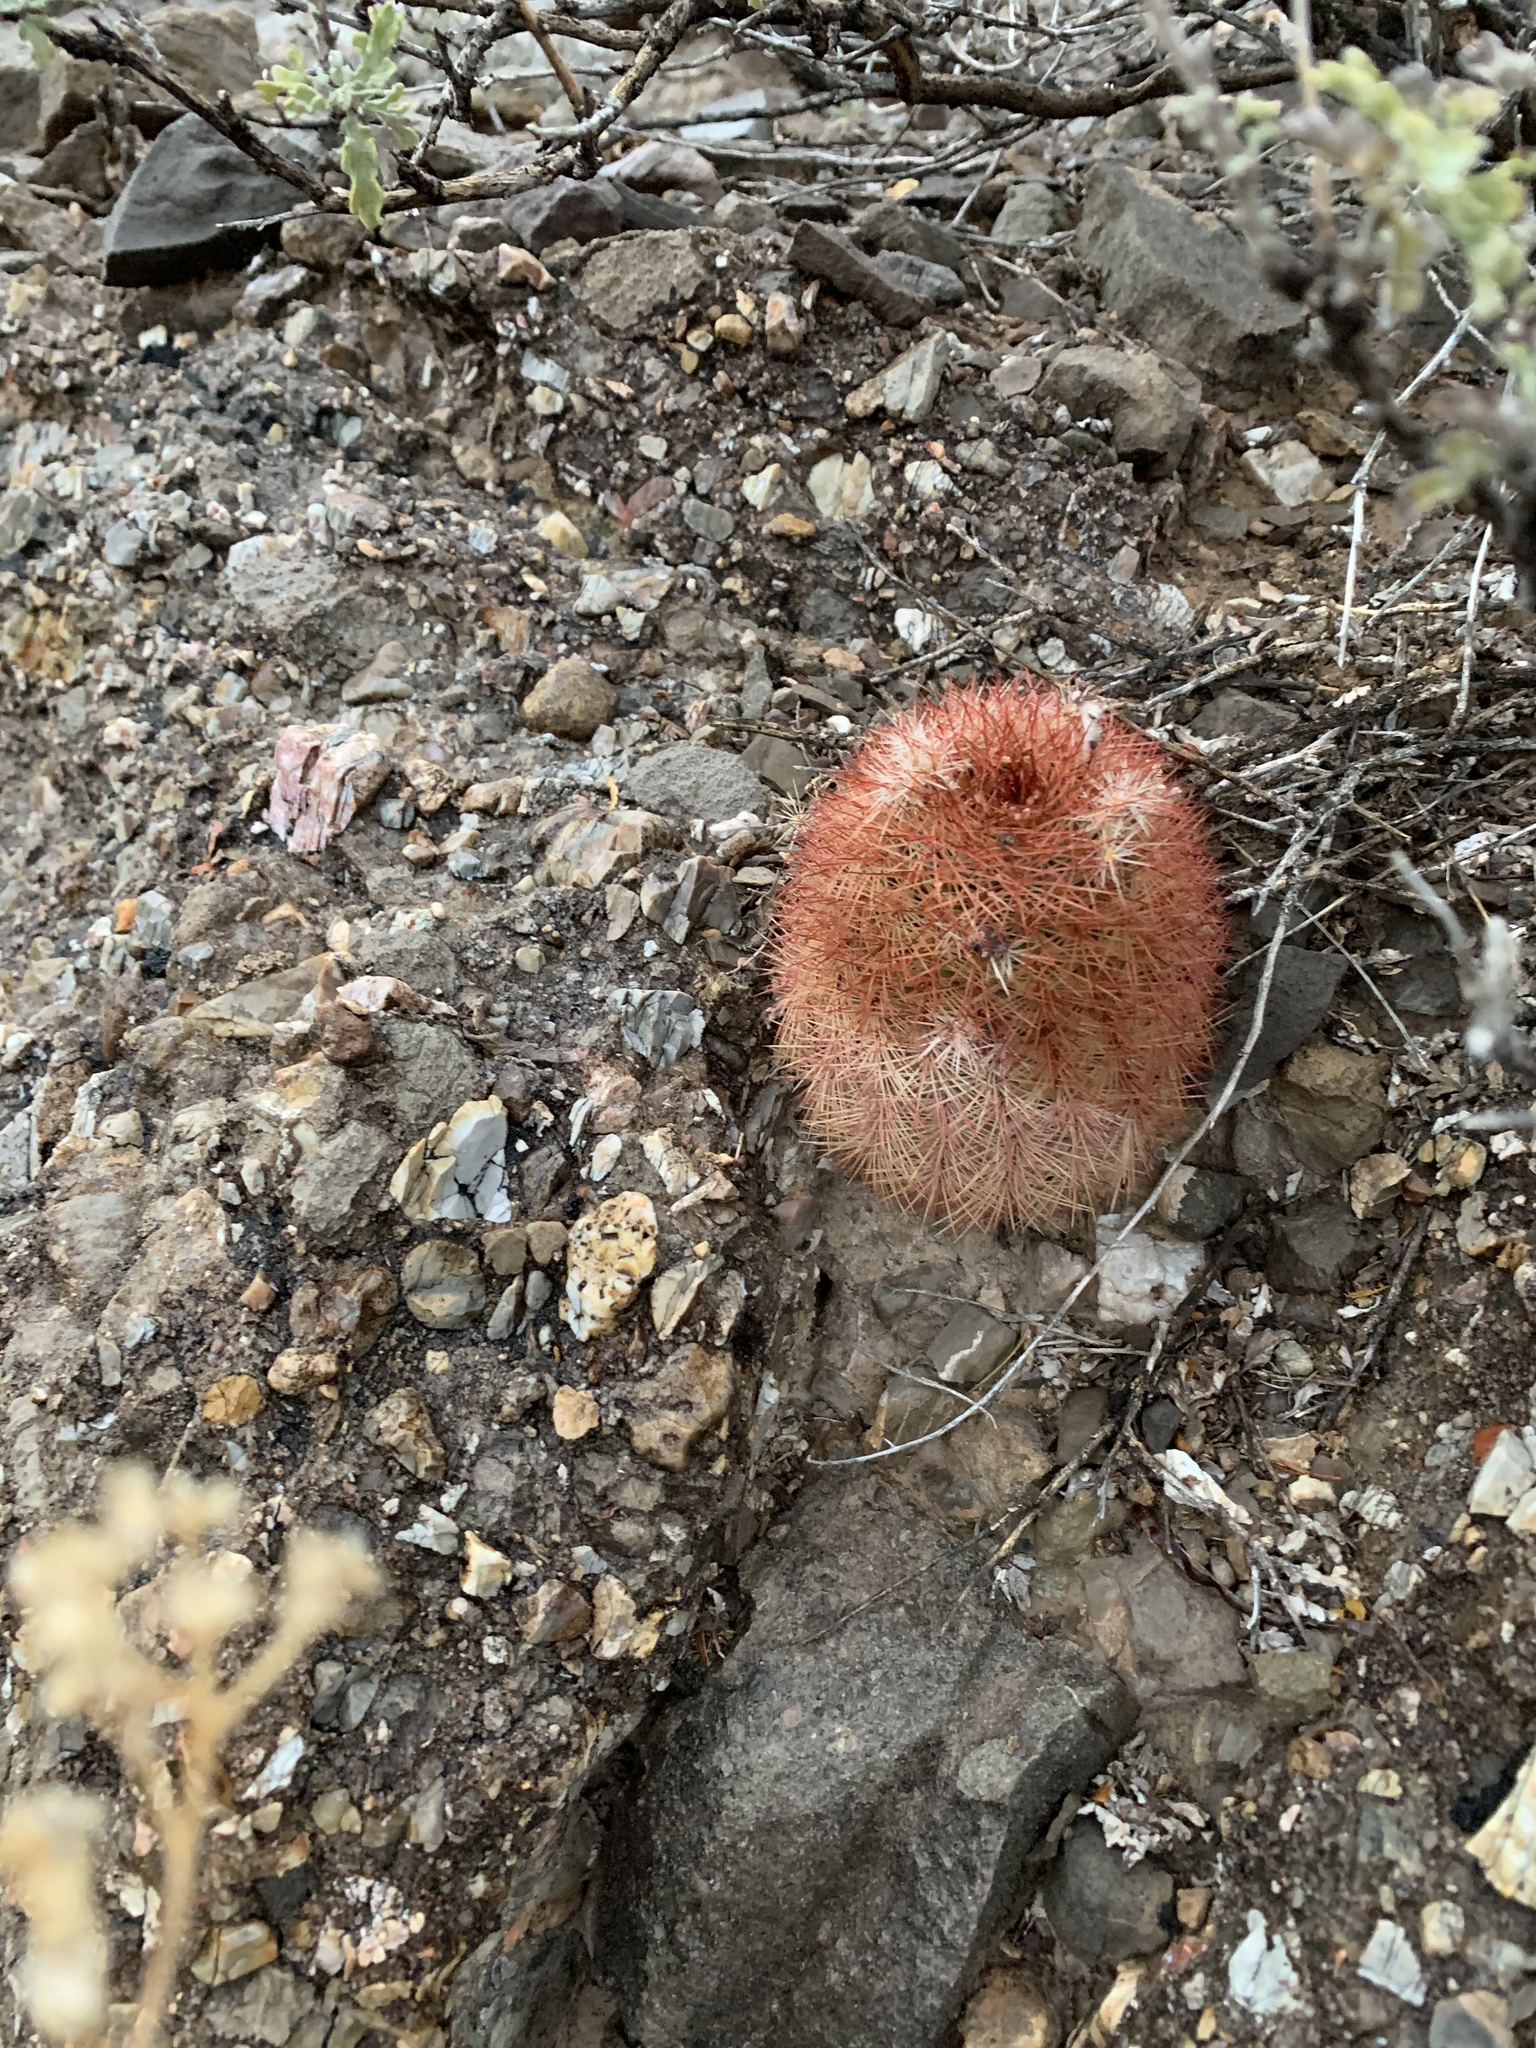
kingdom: Plantae
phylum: Tracheophyta
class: Magnoliopsida
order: Caryophyllales
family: Cactaceae
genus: Echinocereus
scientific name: Echinocereus dasyacanthus
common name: Spiny hedgehog cactus
